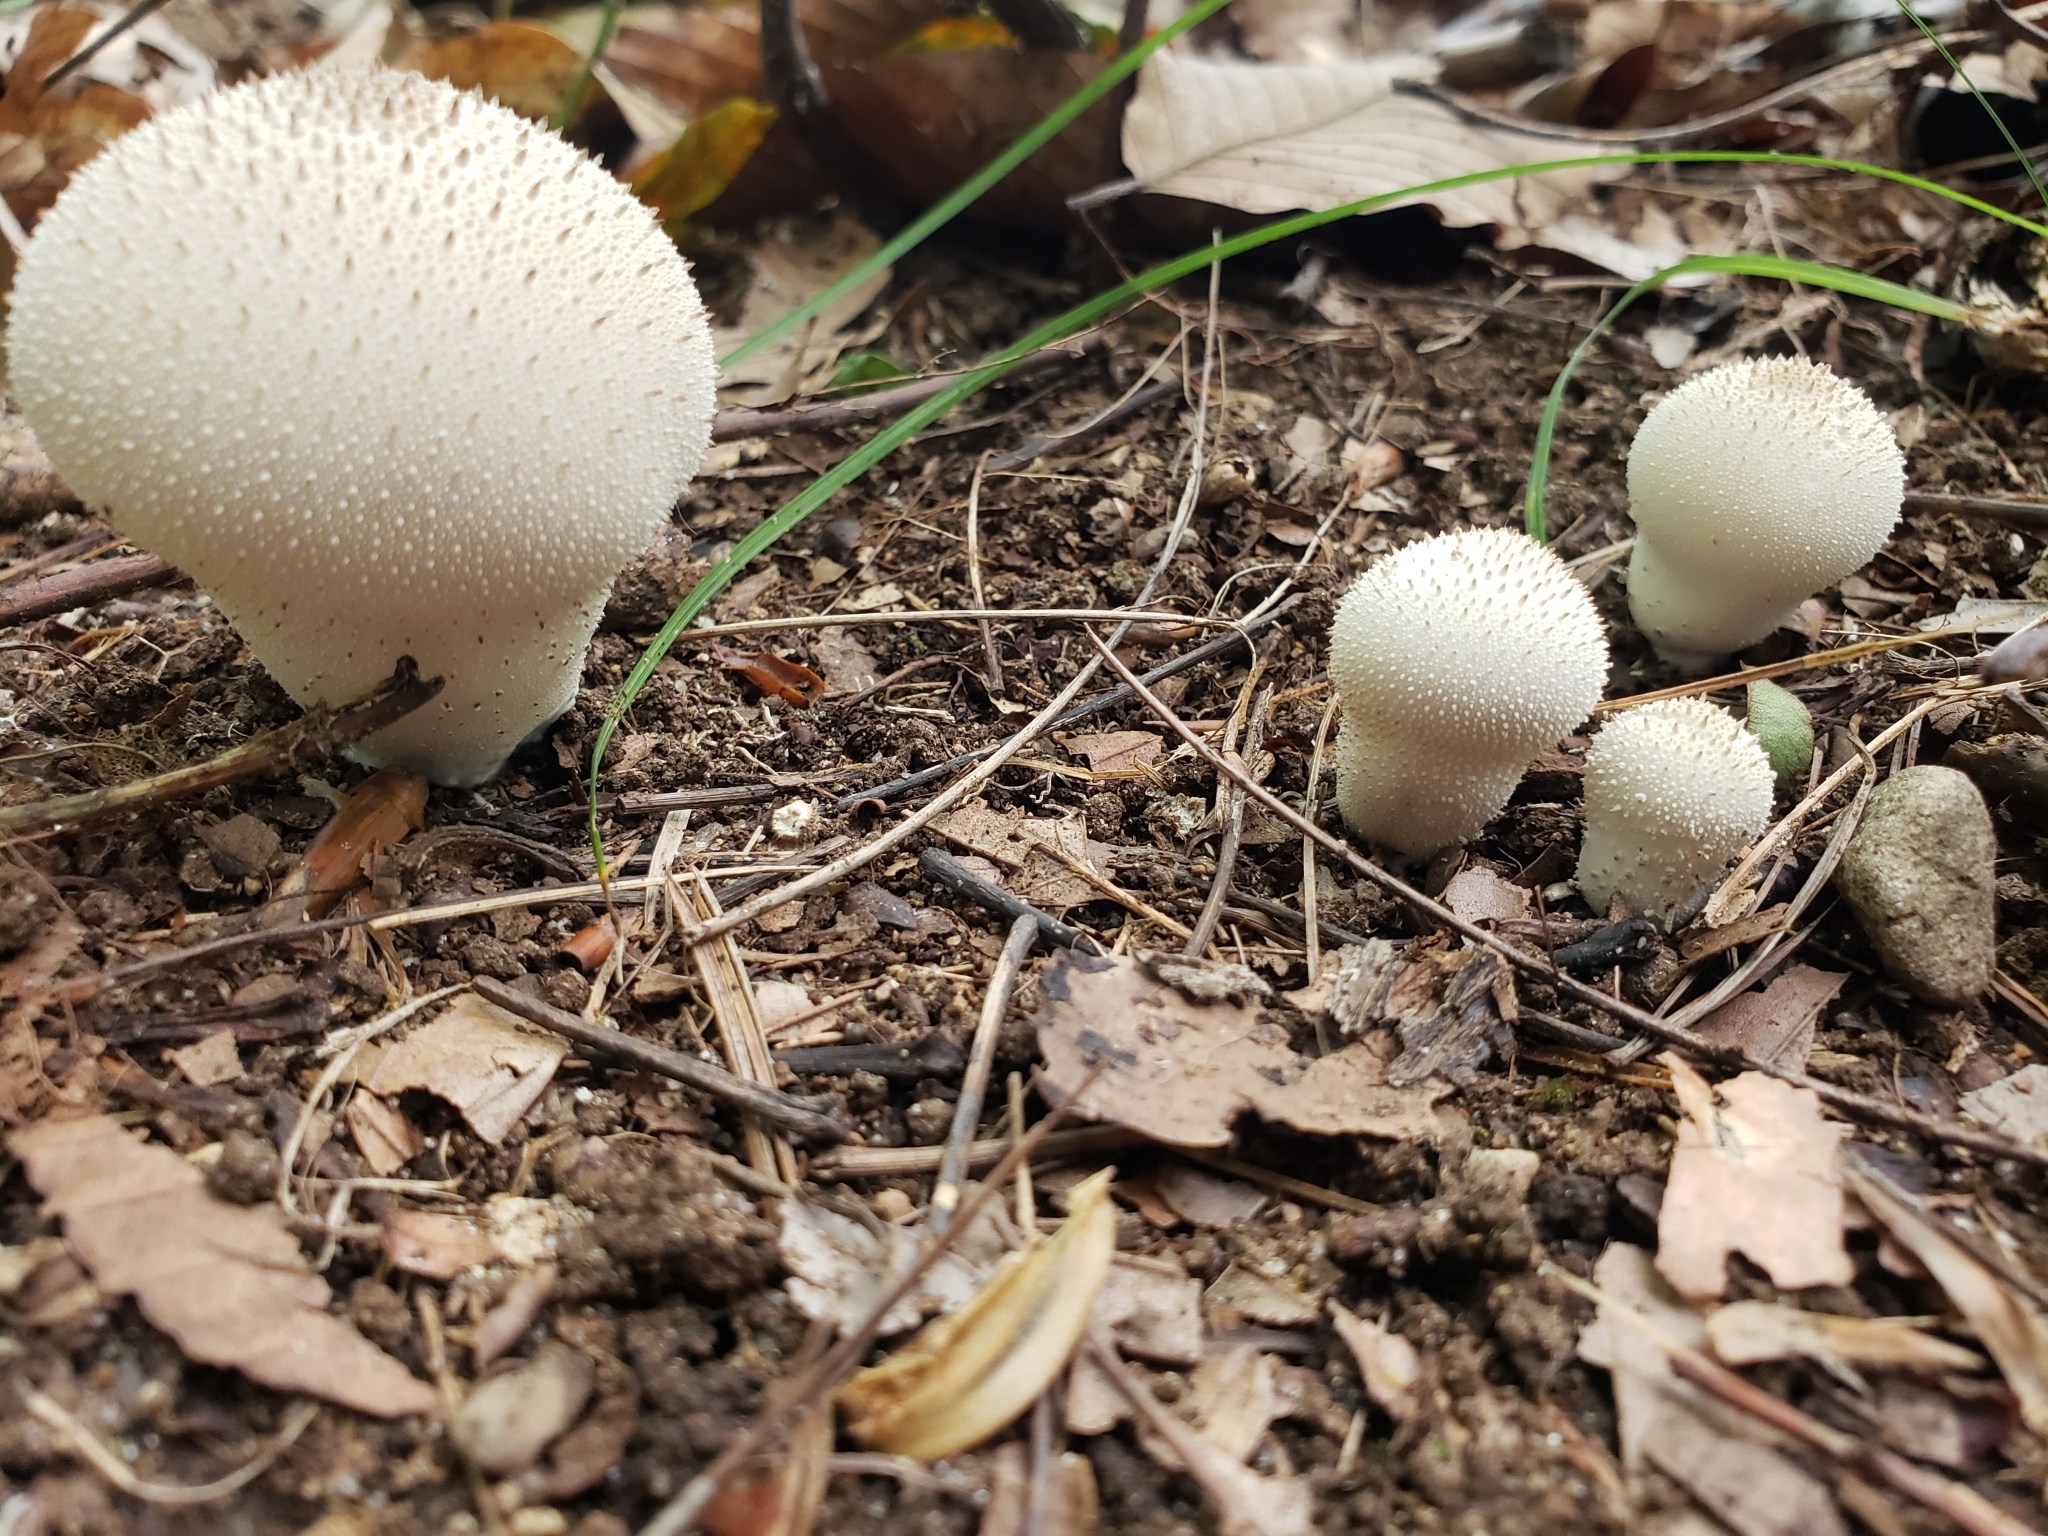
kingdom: Fungi
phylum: Basidiomycota
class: Agaricomycetes
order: Agaricales
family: Lycoperdaceae
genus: Lycoperdon
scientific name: Lycoperdon perlatum
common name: Common puffball
